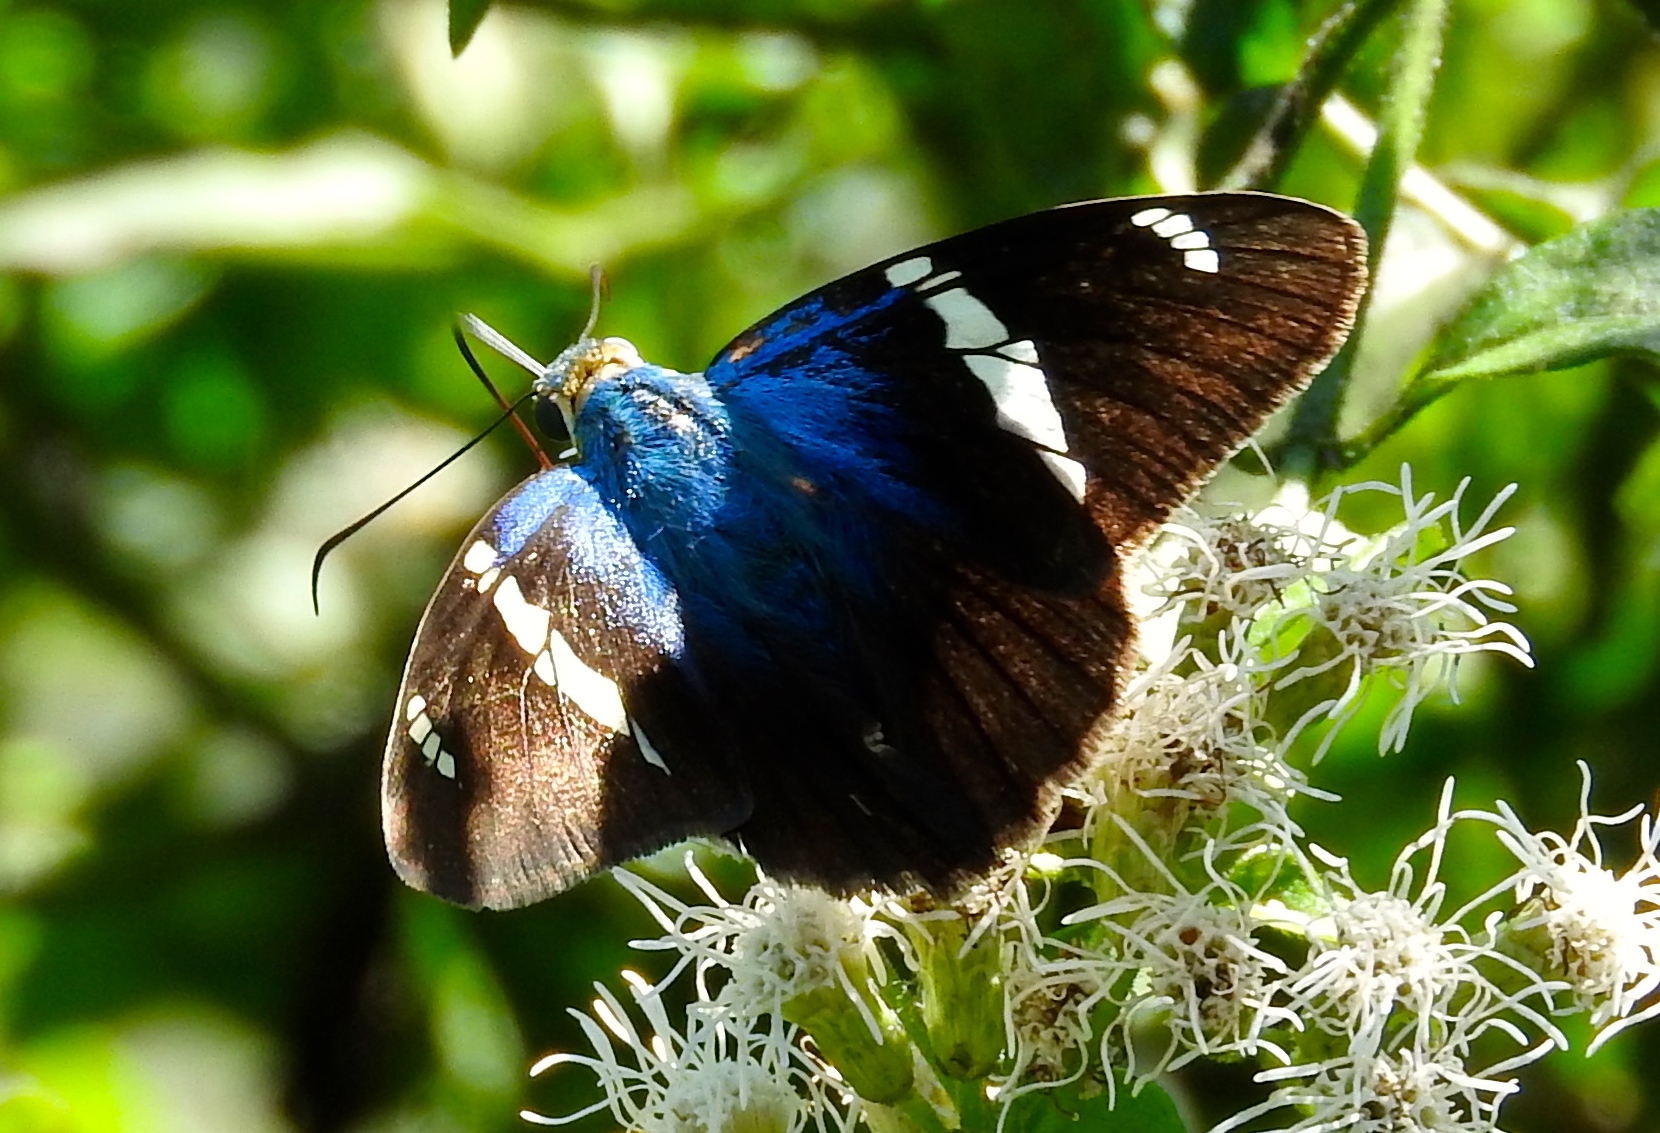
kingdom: Animalia
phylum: Arthropoda
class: Insecta
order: Lepidoptera
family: Hesperiidae
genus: Astraptes
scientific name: Astraptes fulgerator
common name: Two-barred flasher
